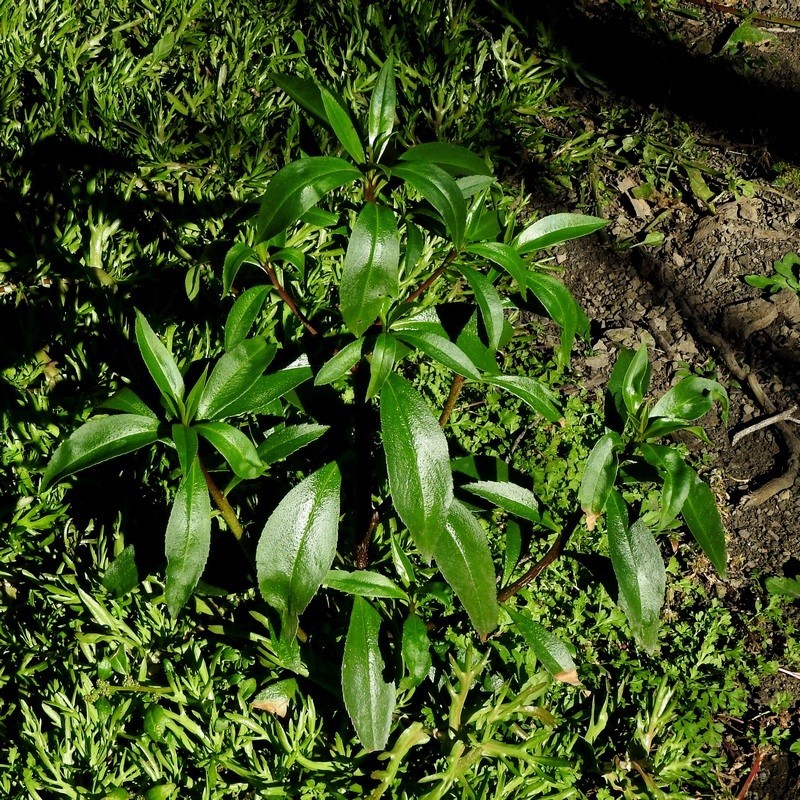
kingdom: Plantae
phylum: Tracheophyta
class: Magnoliopsida
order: Lamiales
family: Scrophulariaceae
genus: Myoporum
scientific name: Myoporum acuminatum
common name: Pointed boobialla
